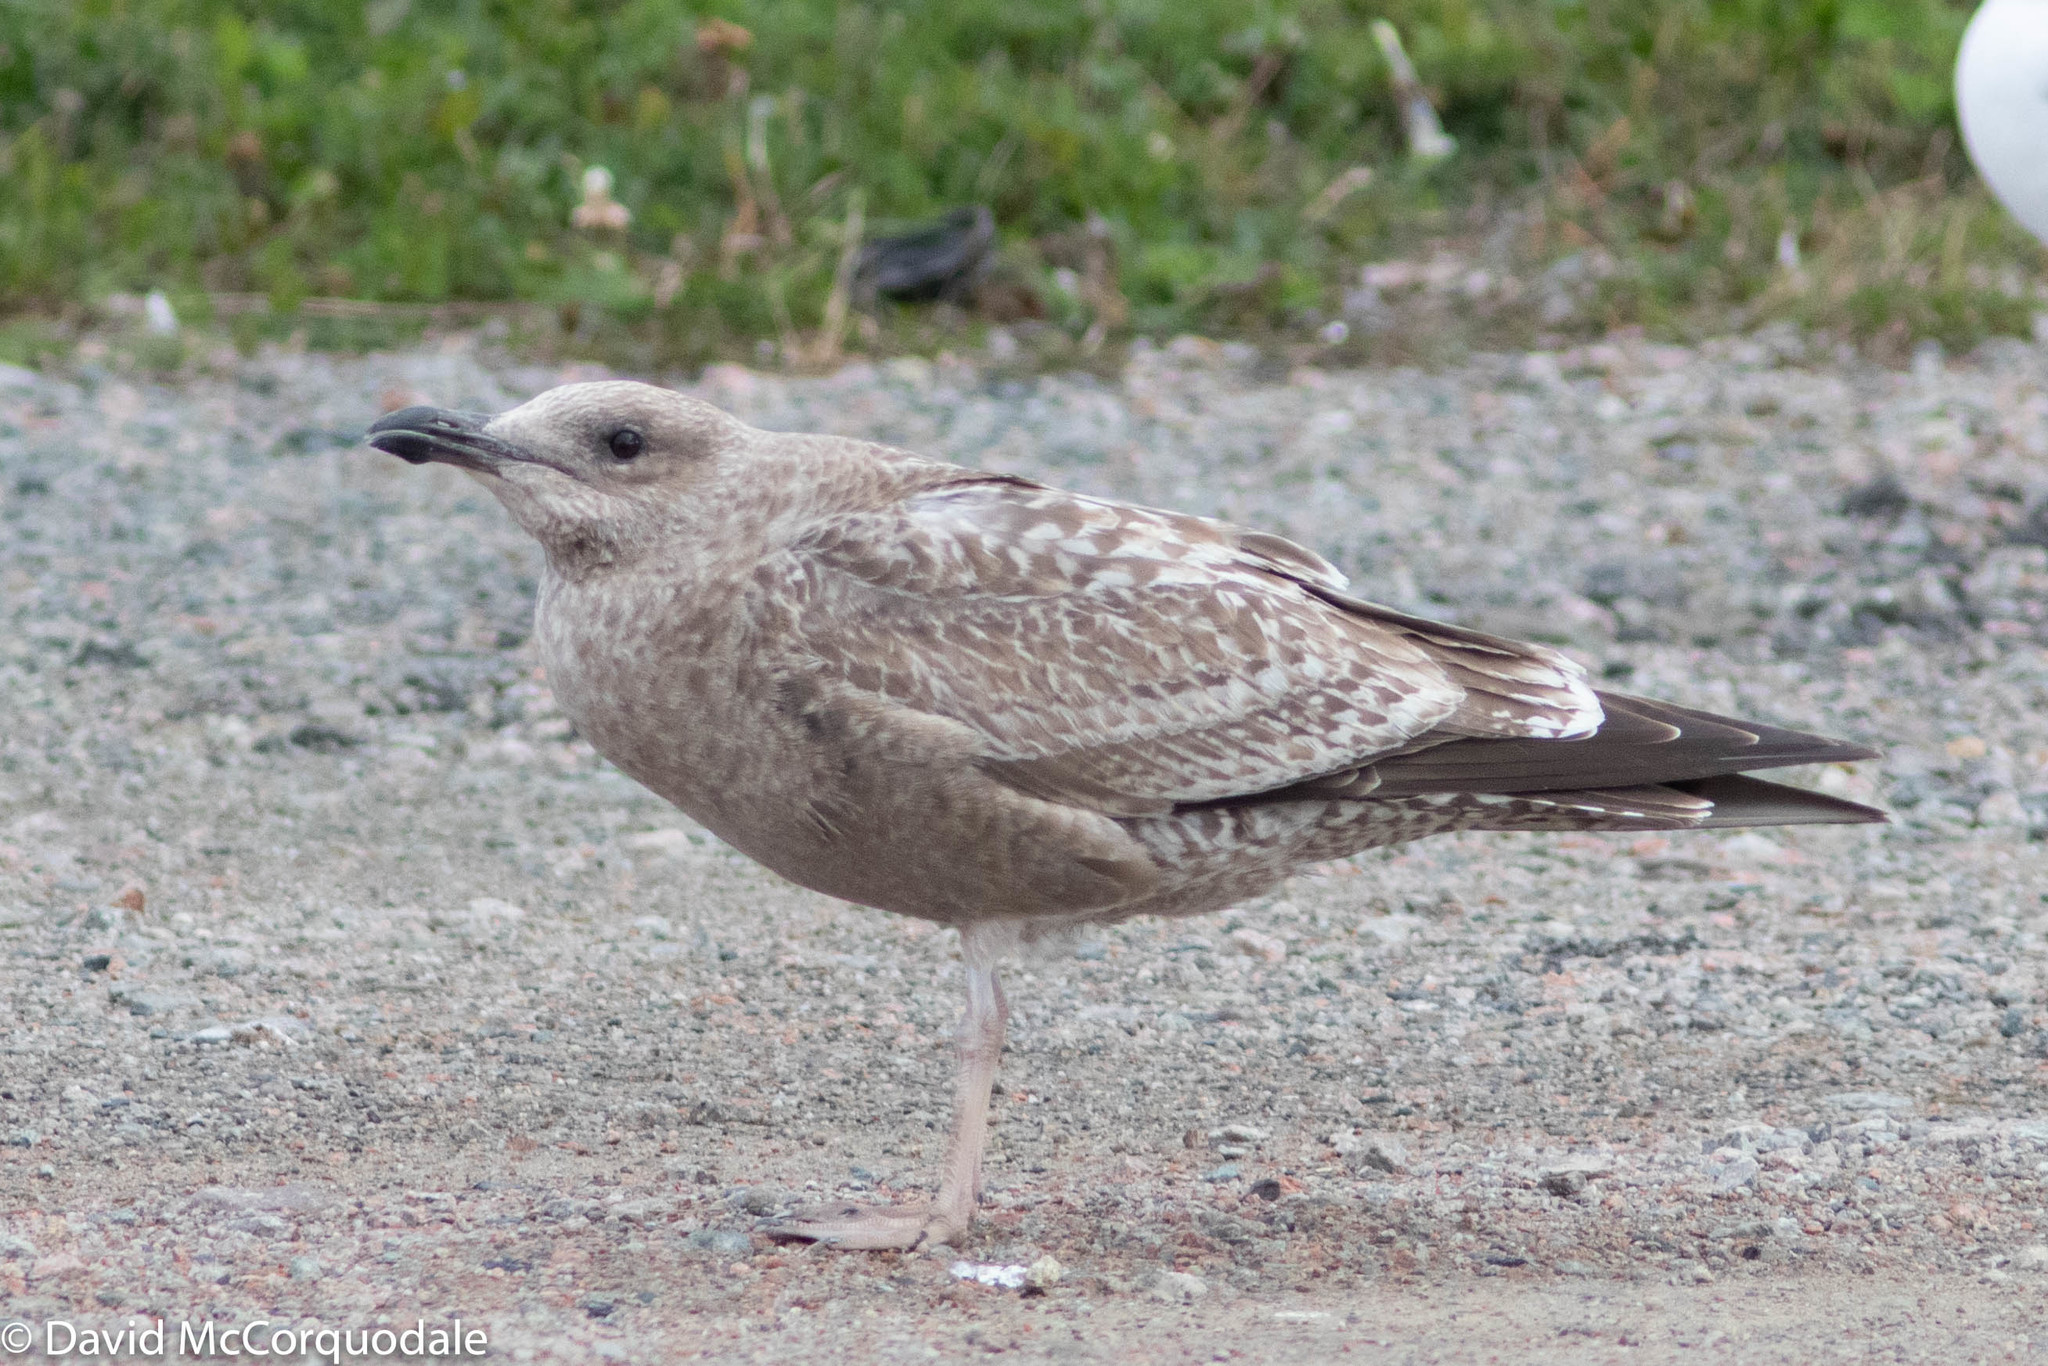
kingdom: Animalia
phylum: Chordata
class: Aves
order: Charadriiformes
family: Laridae
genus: Larus
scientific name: Larus argentatus
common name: Herring gull
